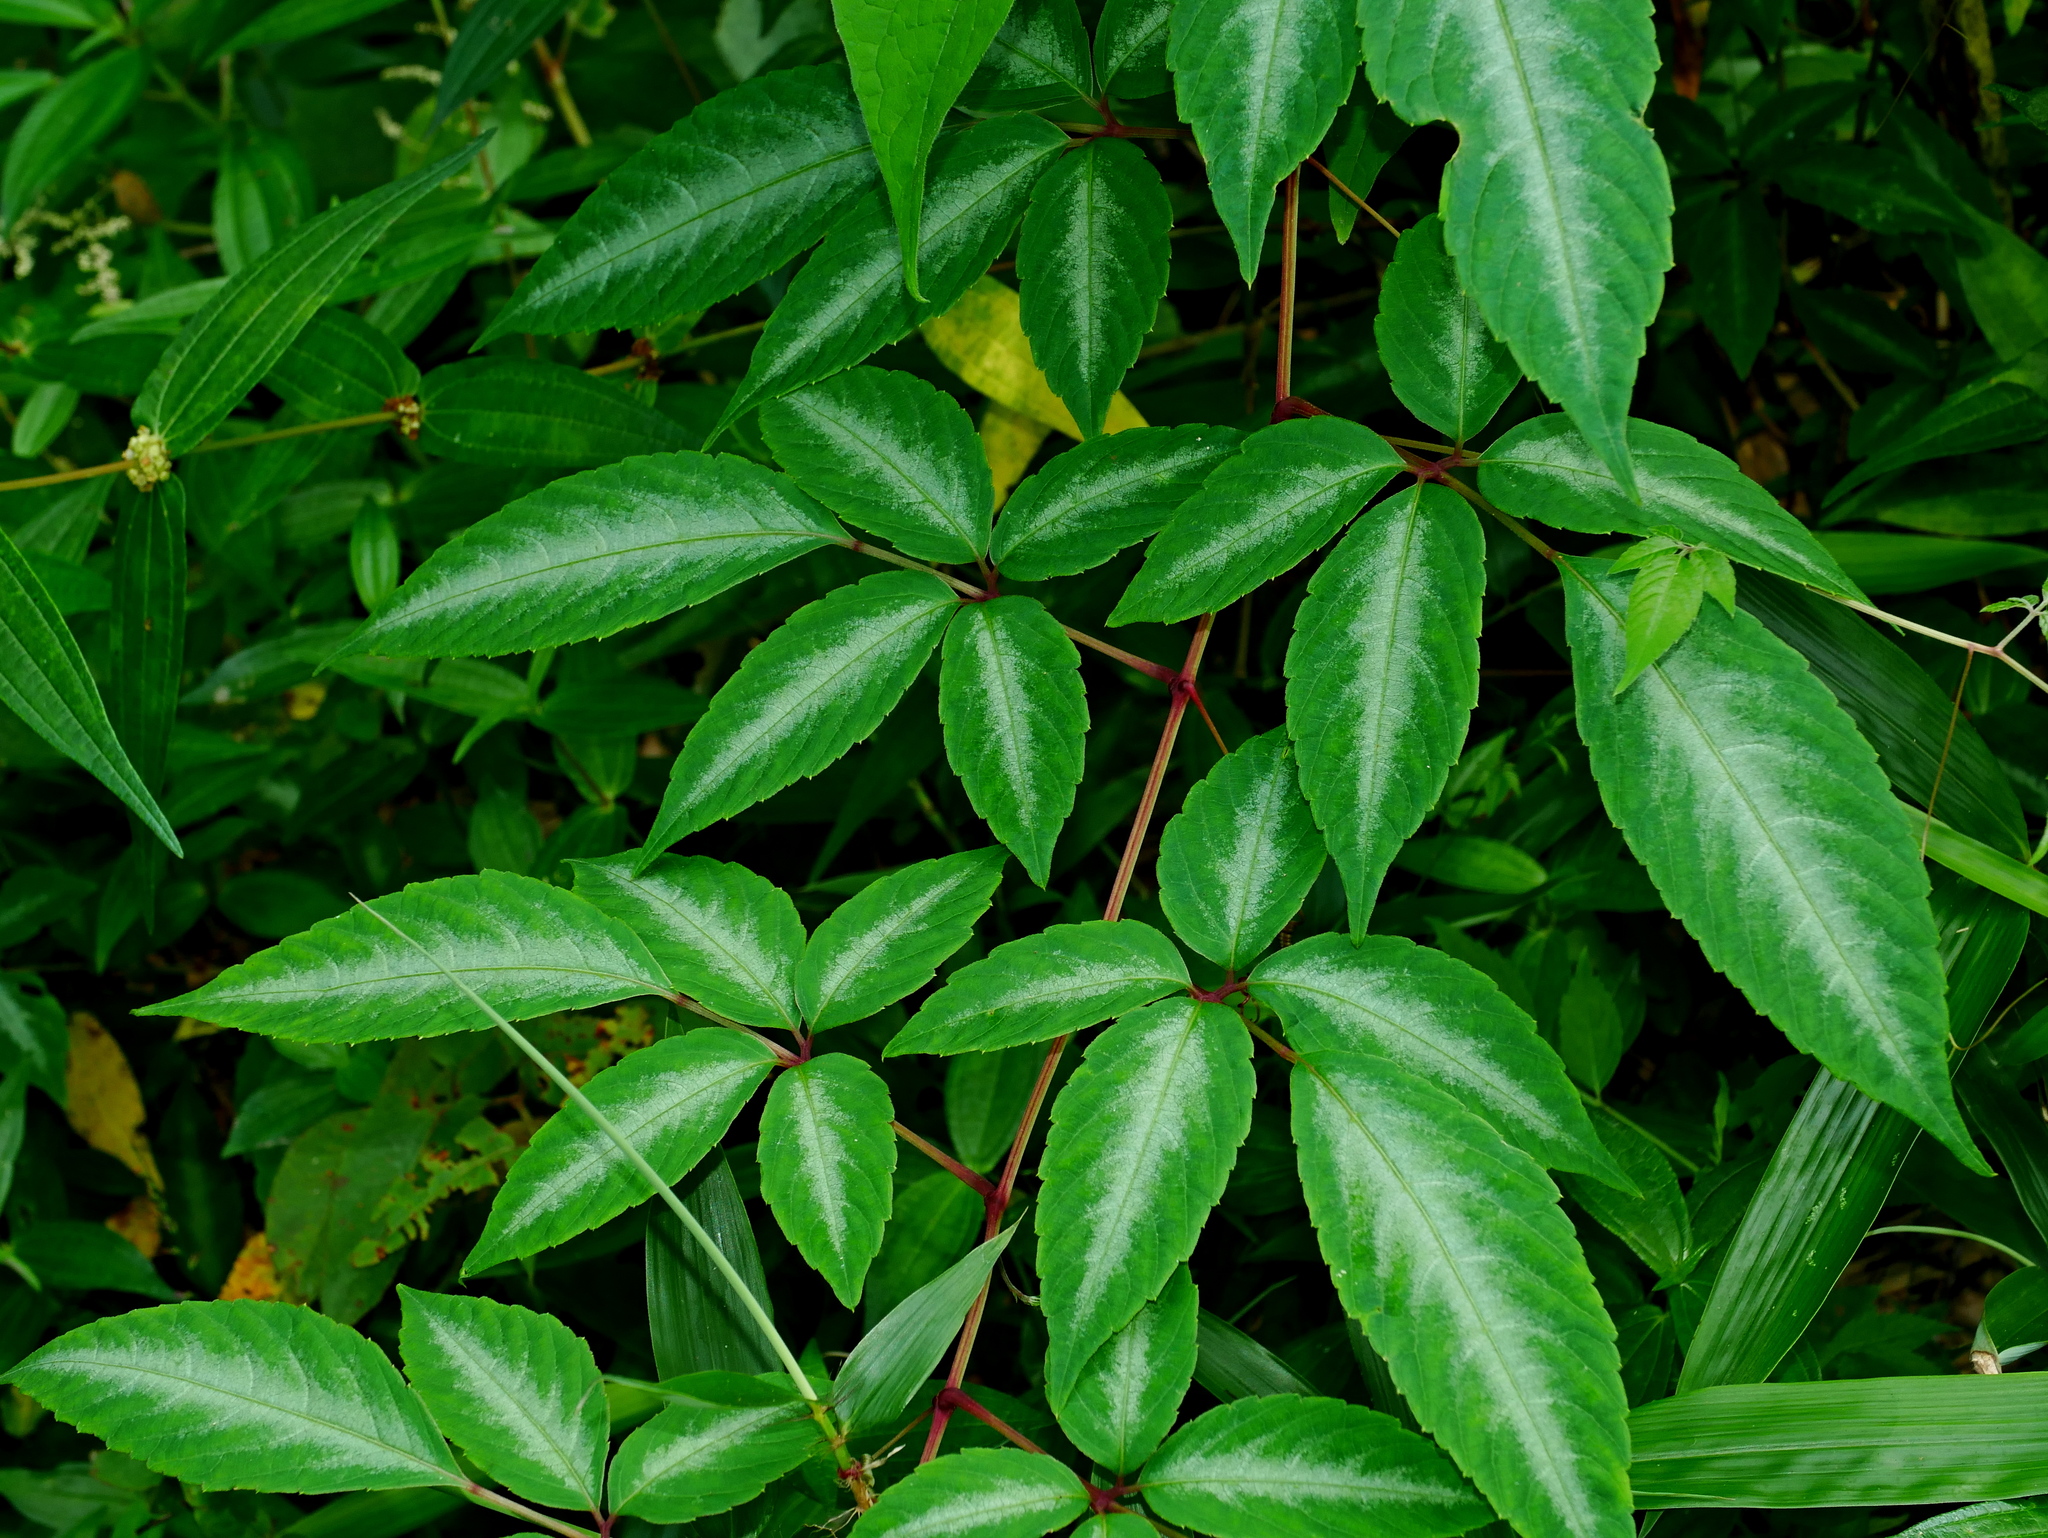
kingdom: Plantae
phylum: Tracheophyta
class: Magnoliopsida
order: Vitales
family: Vitaceae
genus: Pseudocayratia
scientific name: Pseudocayratia pengiana
